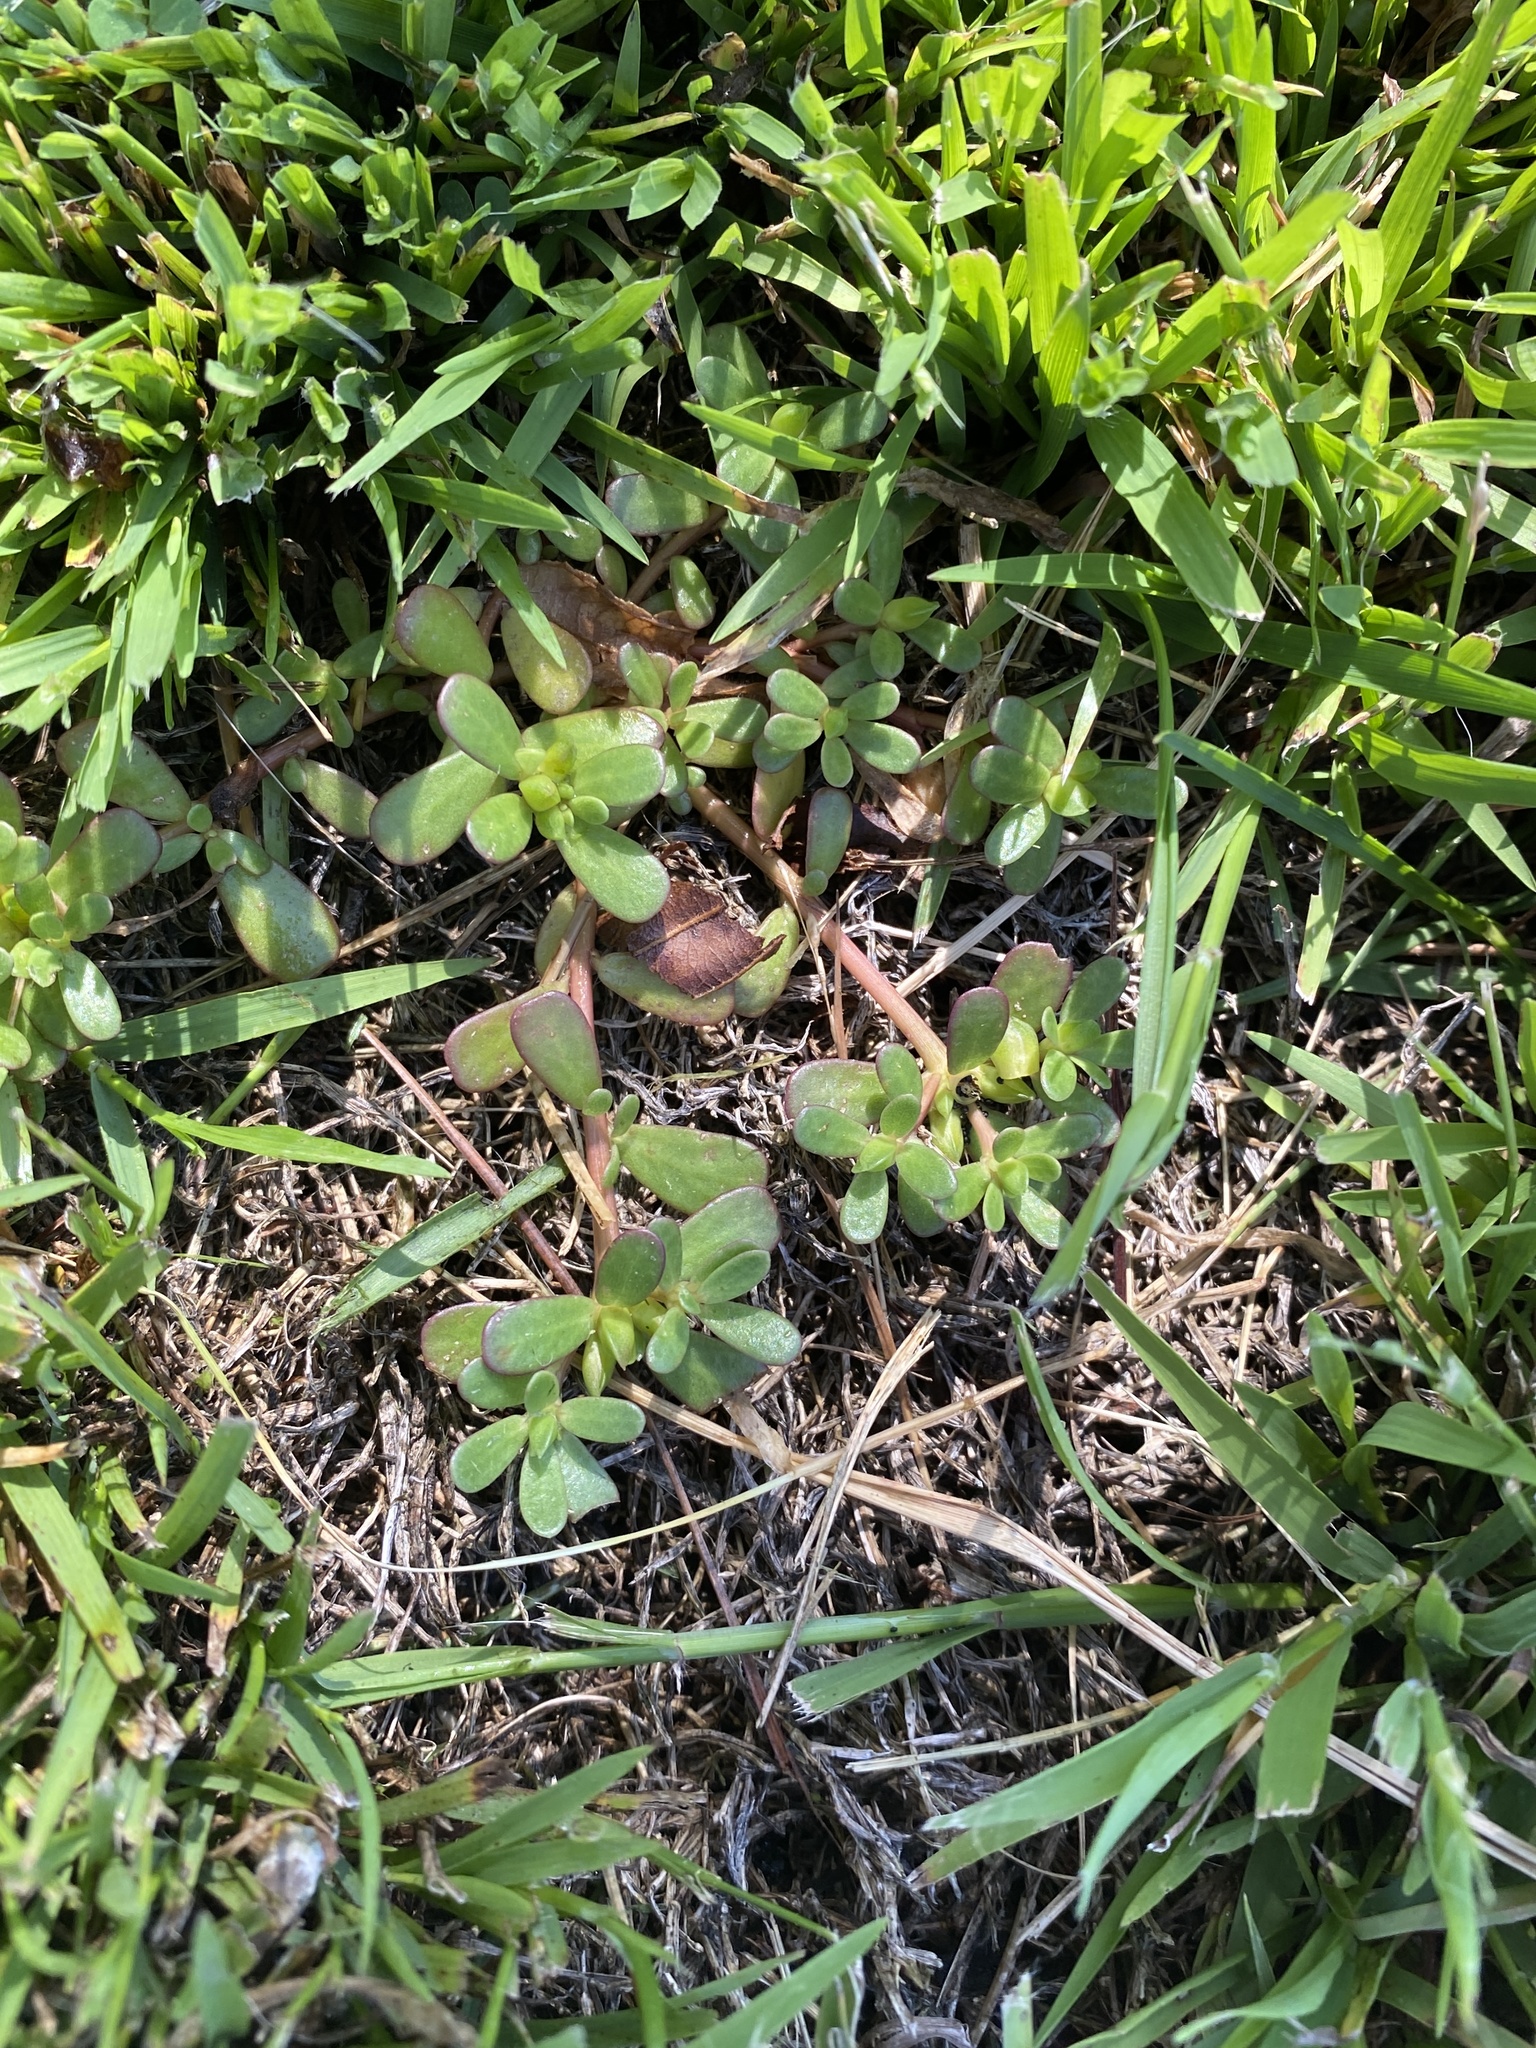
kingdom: Plantae
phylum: Tracheophyta
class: Magnoliopsida
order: Caryophyllales
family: Portulacaceae
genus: Portulaca
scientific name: Portulaca oleracea
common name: Common purslane
